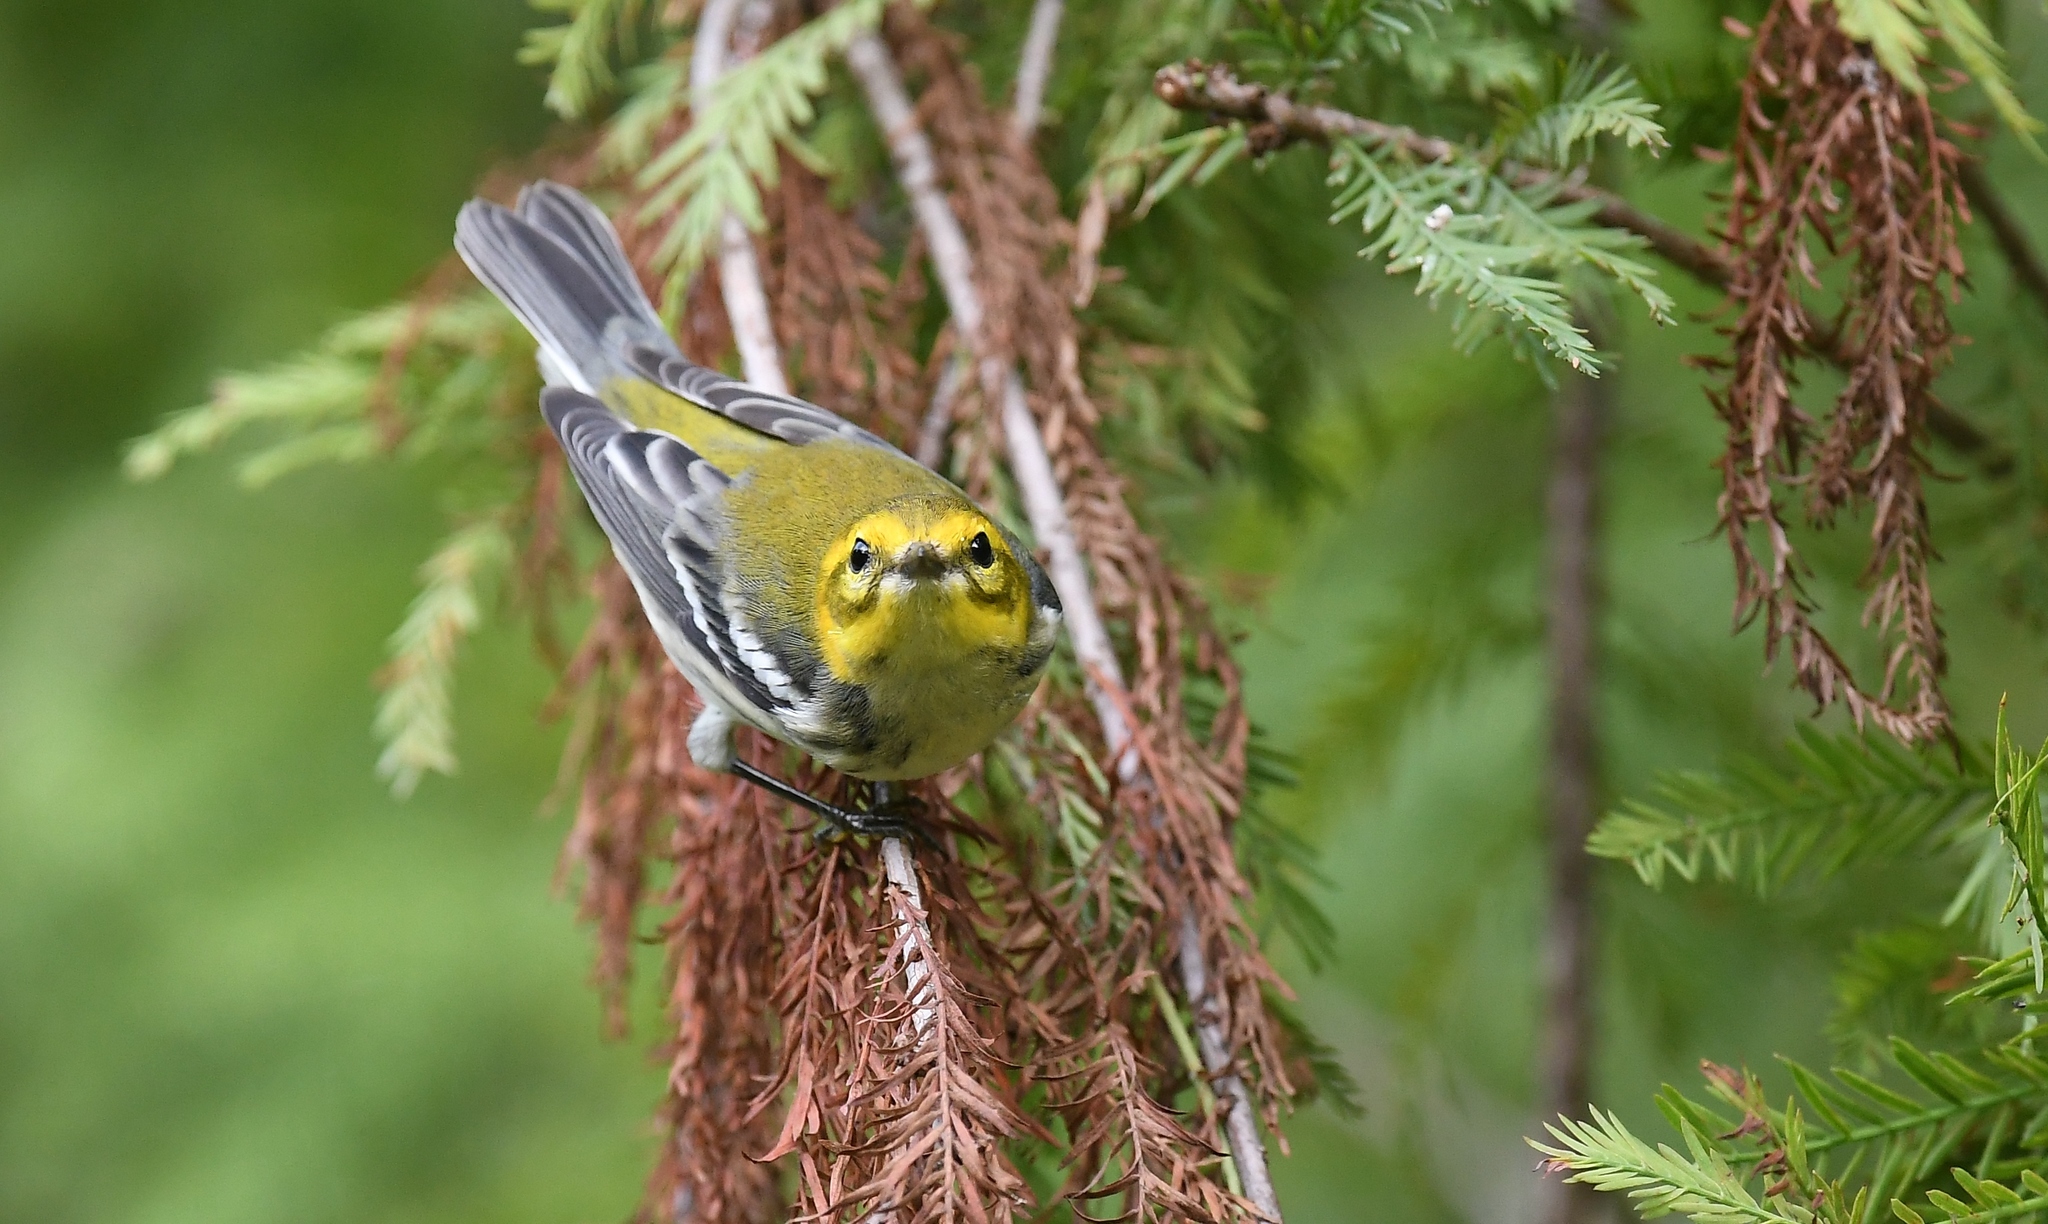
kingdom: Animalia
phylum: Chordata
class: Aves
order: Passeriformes
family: Parulidae
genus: Setophaga
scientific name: Setophaga virens
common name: Black-throated green warbler
